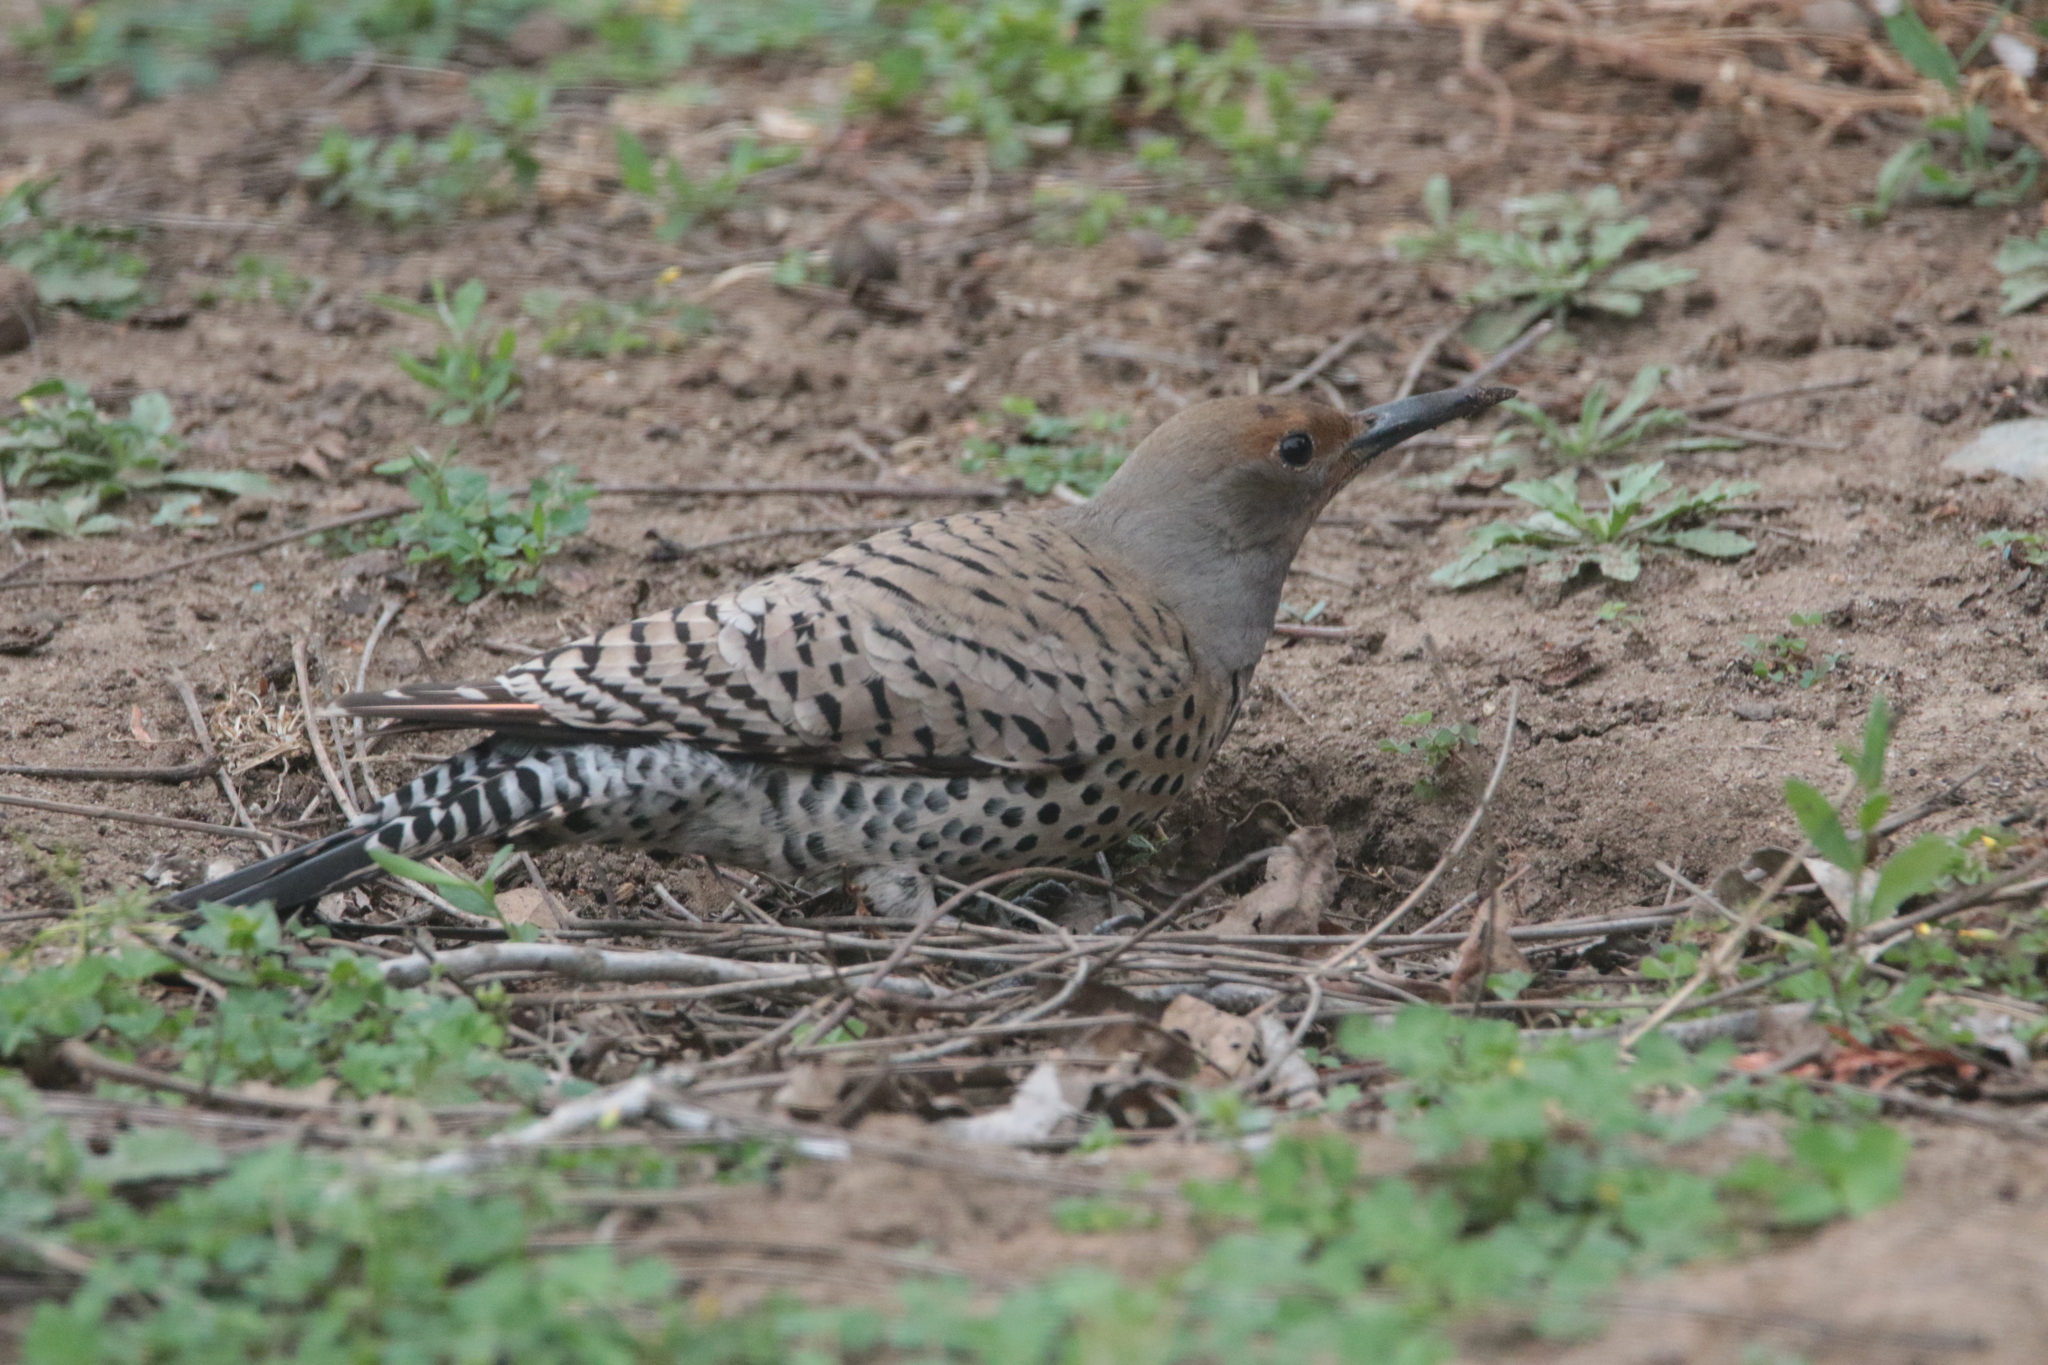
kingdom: Animalia
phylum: Chordata
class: Aves
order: Piciformes
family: Picidae
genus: Colaptes
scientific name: Colaptes auratus
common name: Northern flicker
